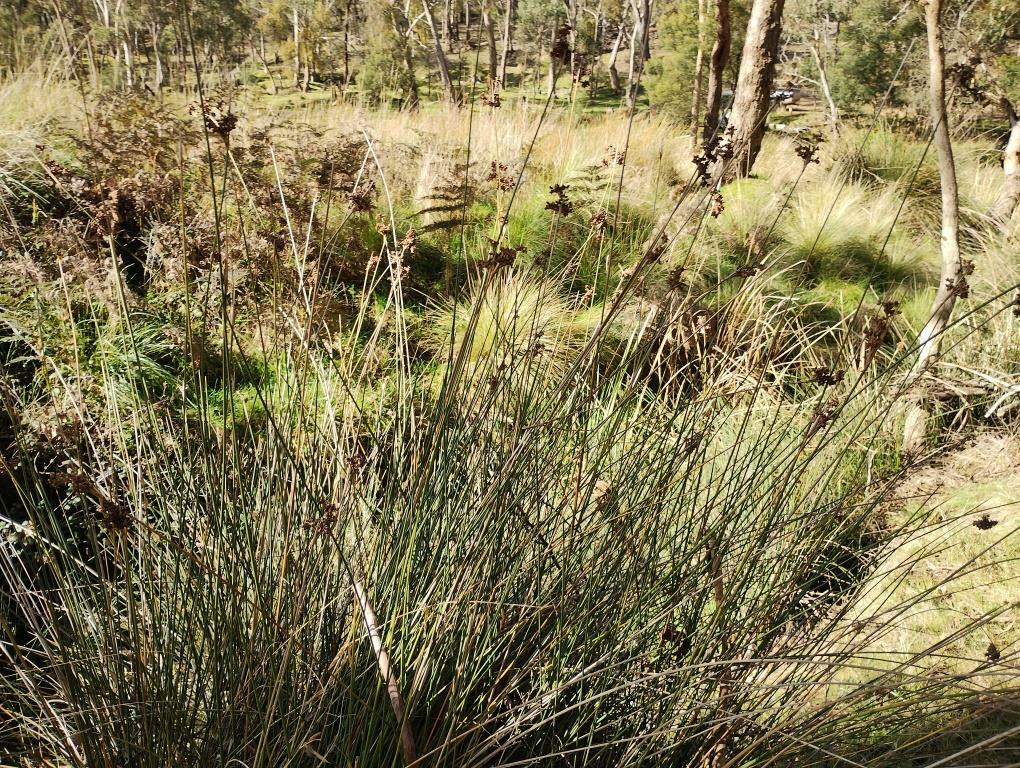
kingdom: Plantae
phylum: Tracheophyta
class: Liliopsida
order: Poales
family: Juncaceae
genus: Juncus
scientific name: Juncus acutus
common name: Sharp rush
